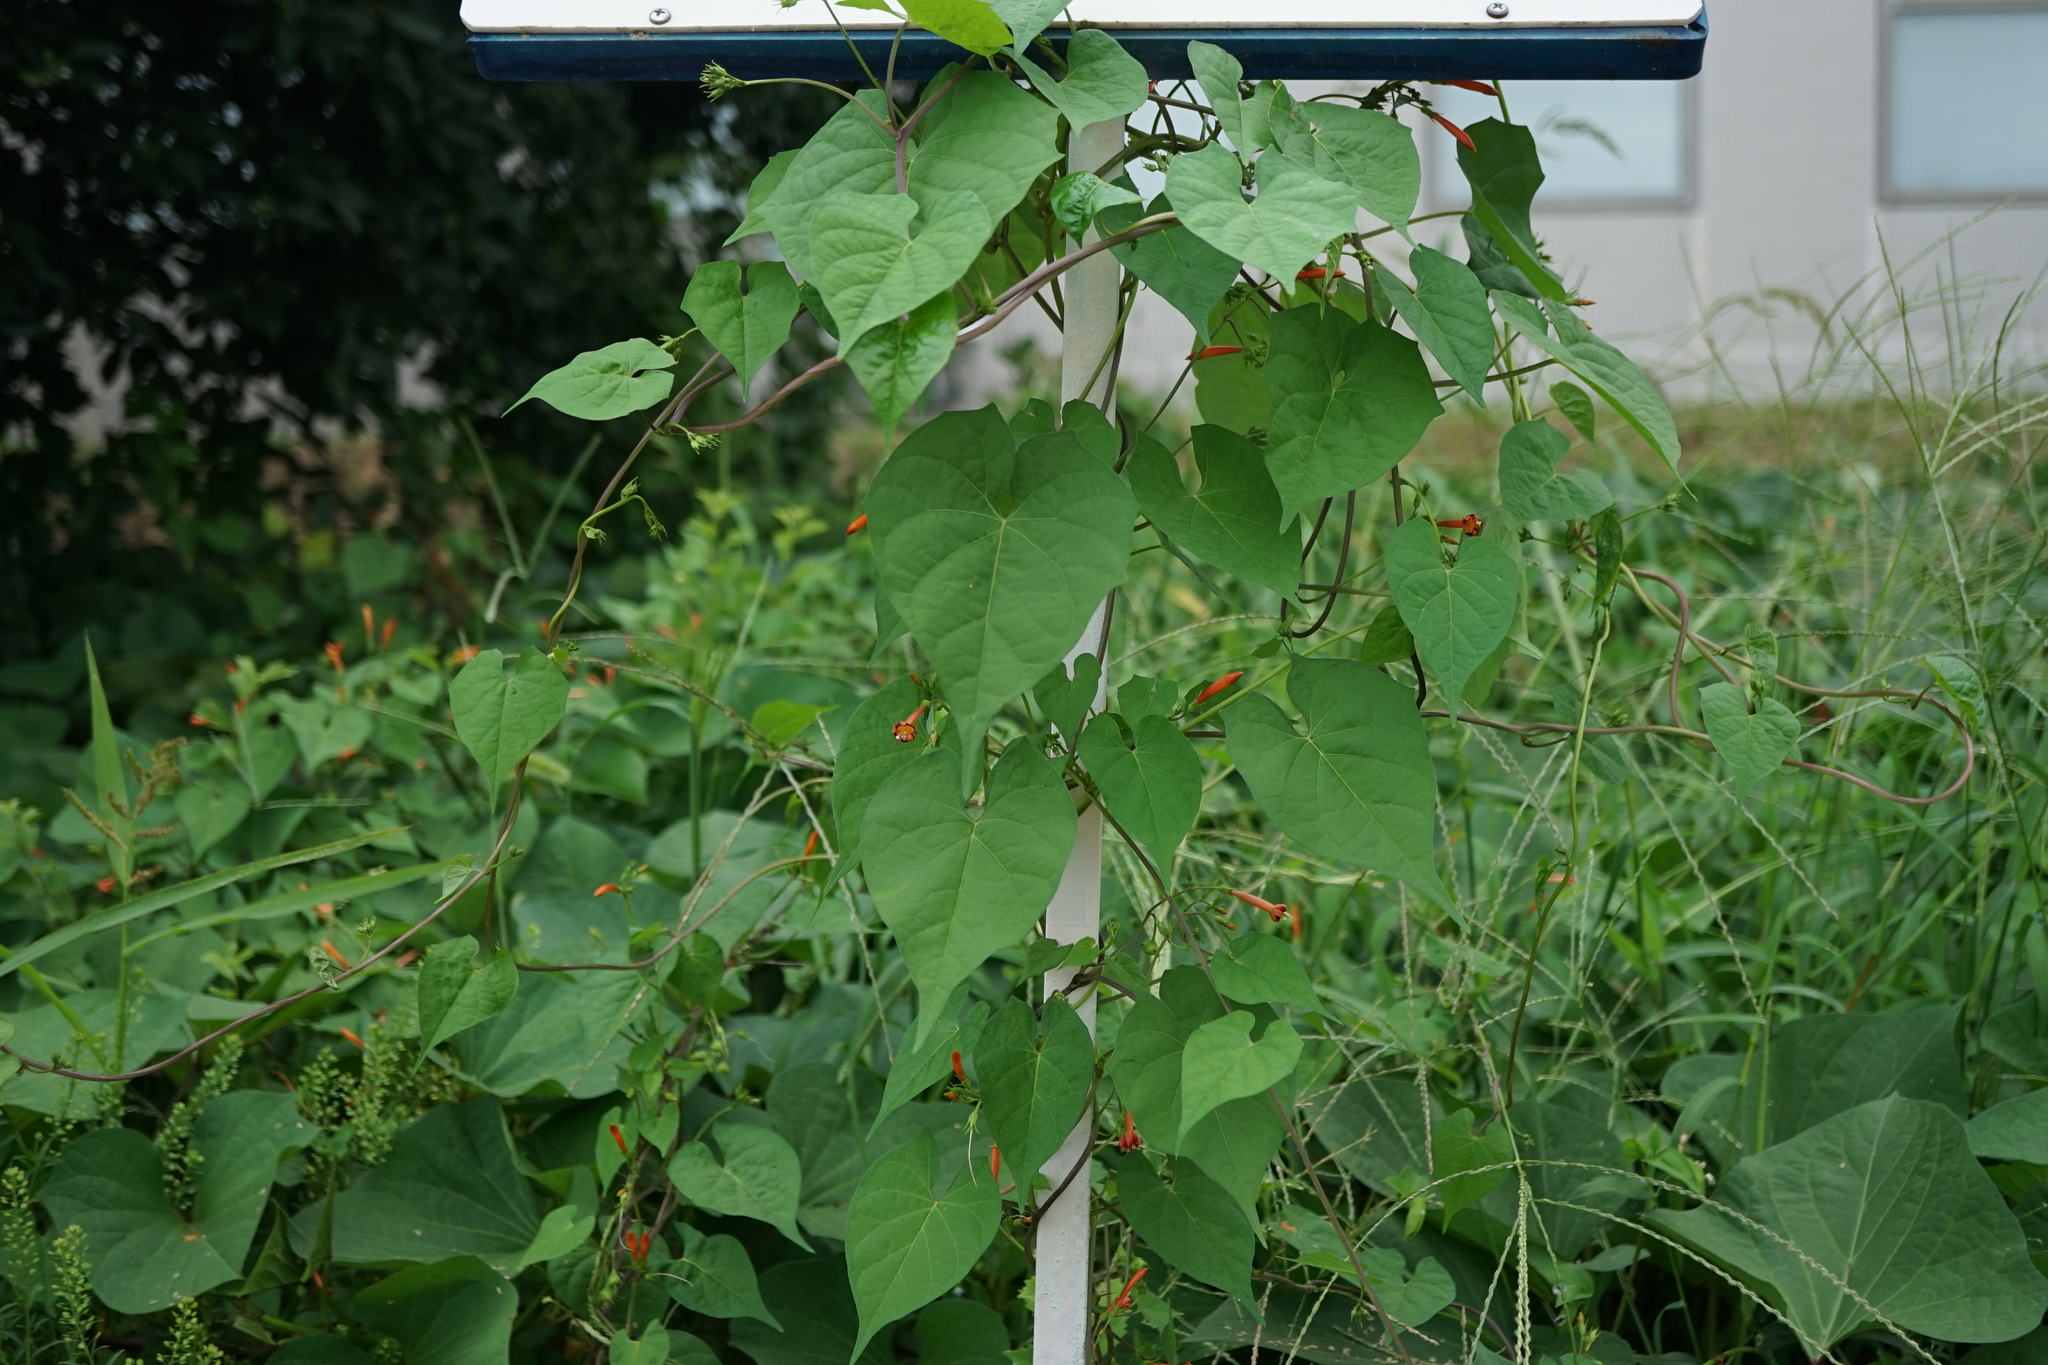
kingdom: Plantae
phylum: Tracheophyta
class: Magnoliopsida
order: Solanales
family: Convolvulaceae
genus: Ipomoea
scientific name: Ipomoea coccinea
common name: Red morning-glory
